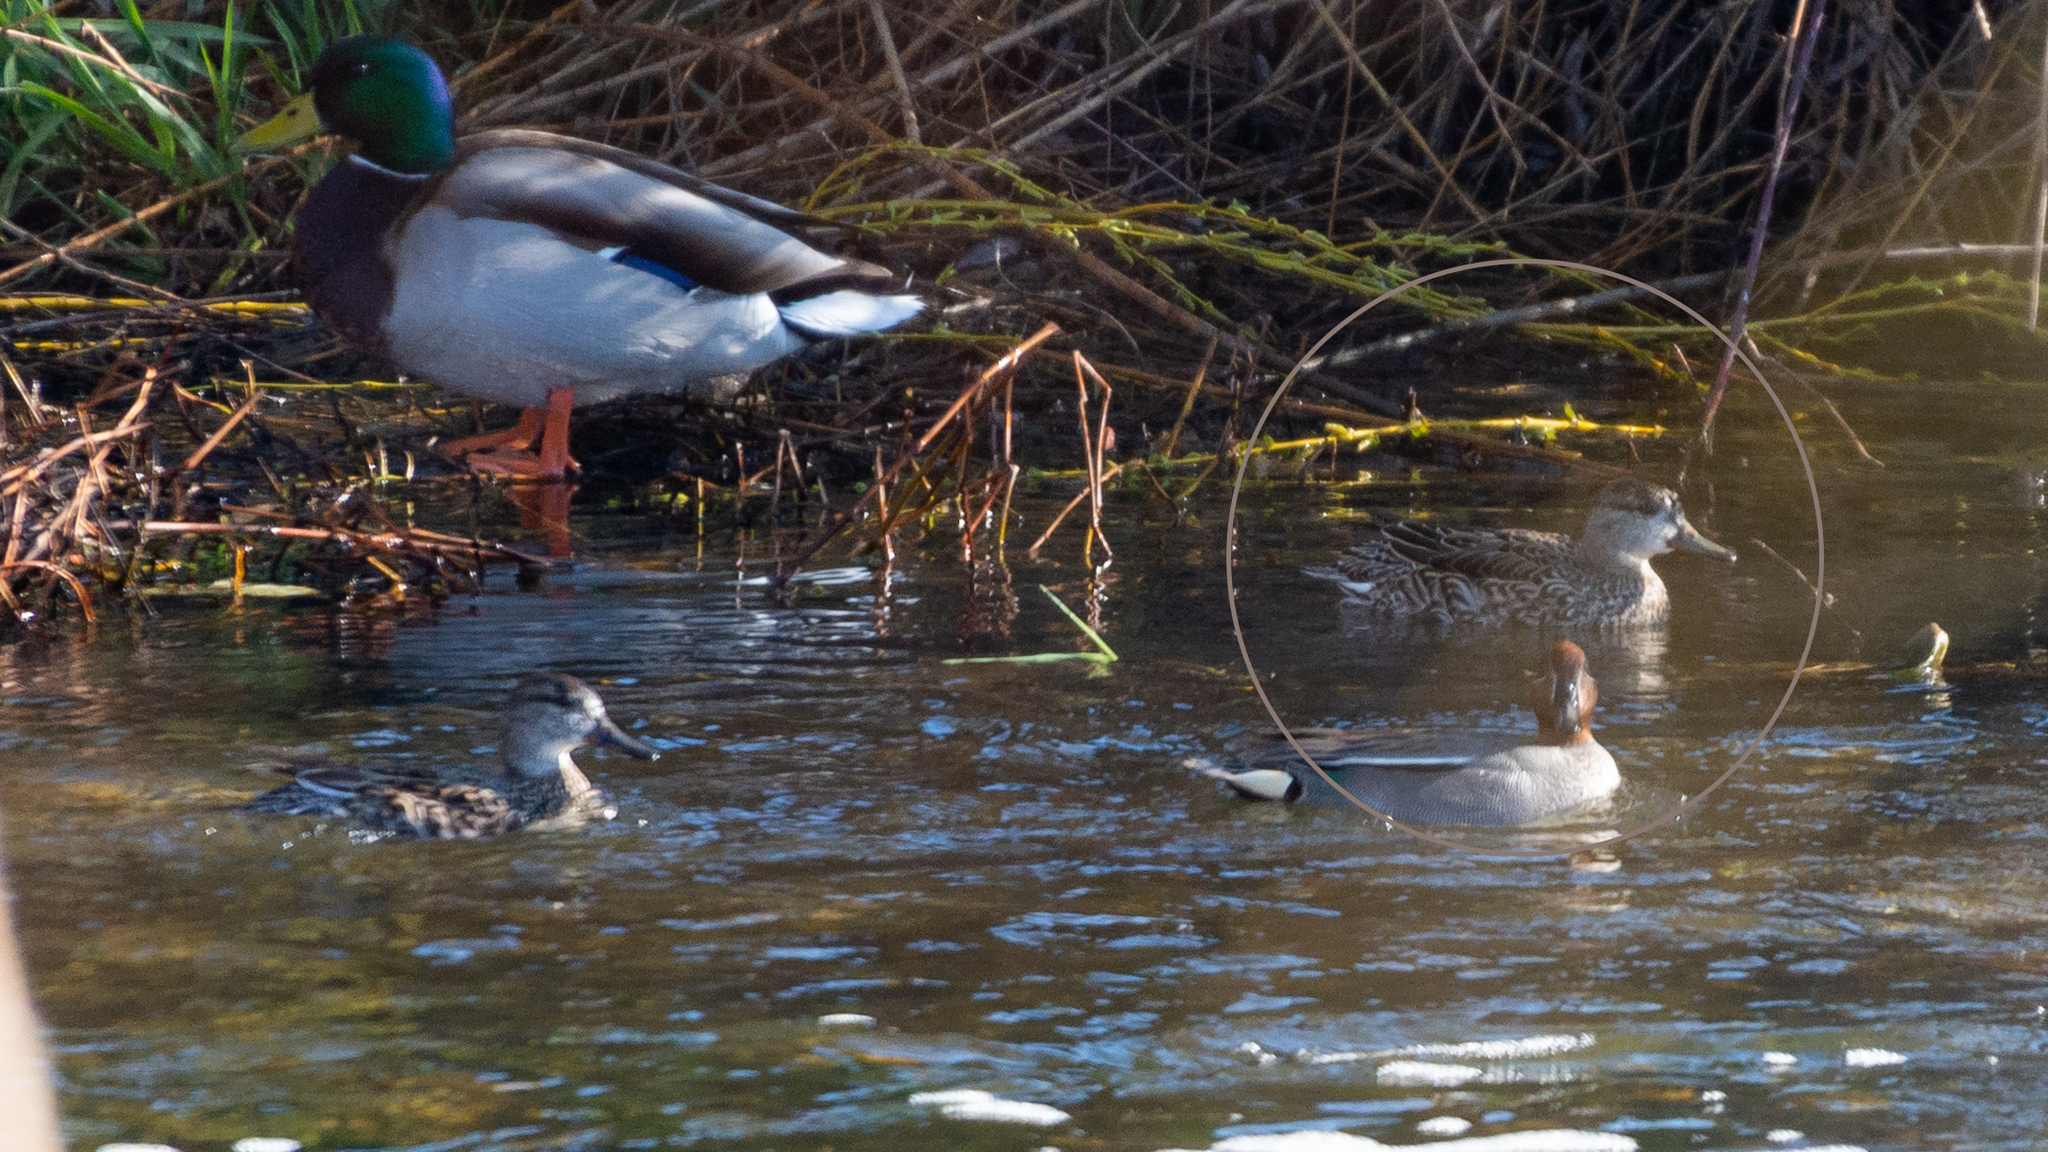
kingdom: Animalia
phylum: Chordata
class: Aves
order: Anseriformes
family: Anatidae
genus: Anas
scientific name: Anas crecca
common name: Eurasian teal
